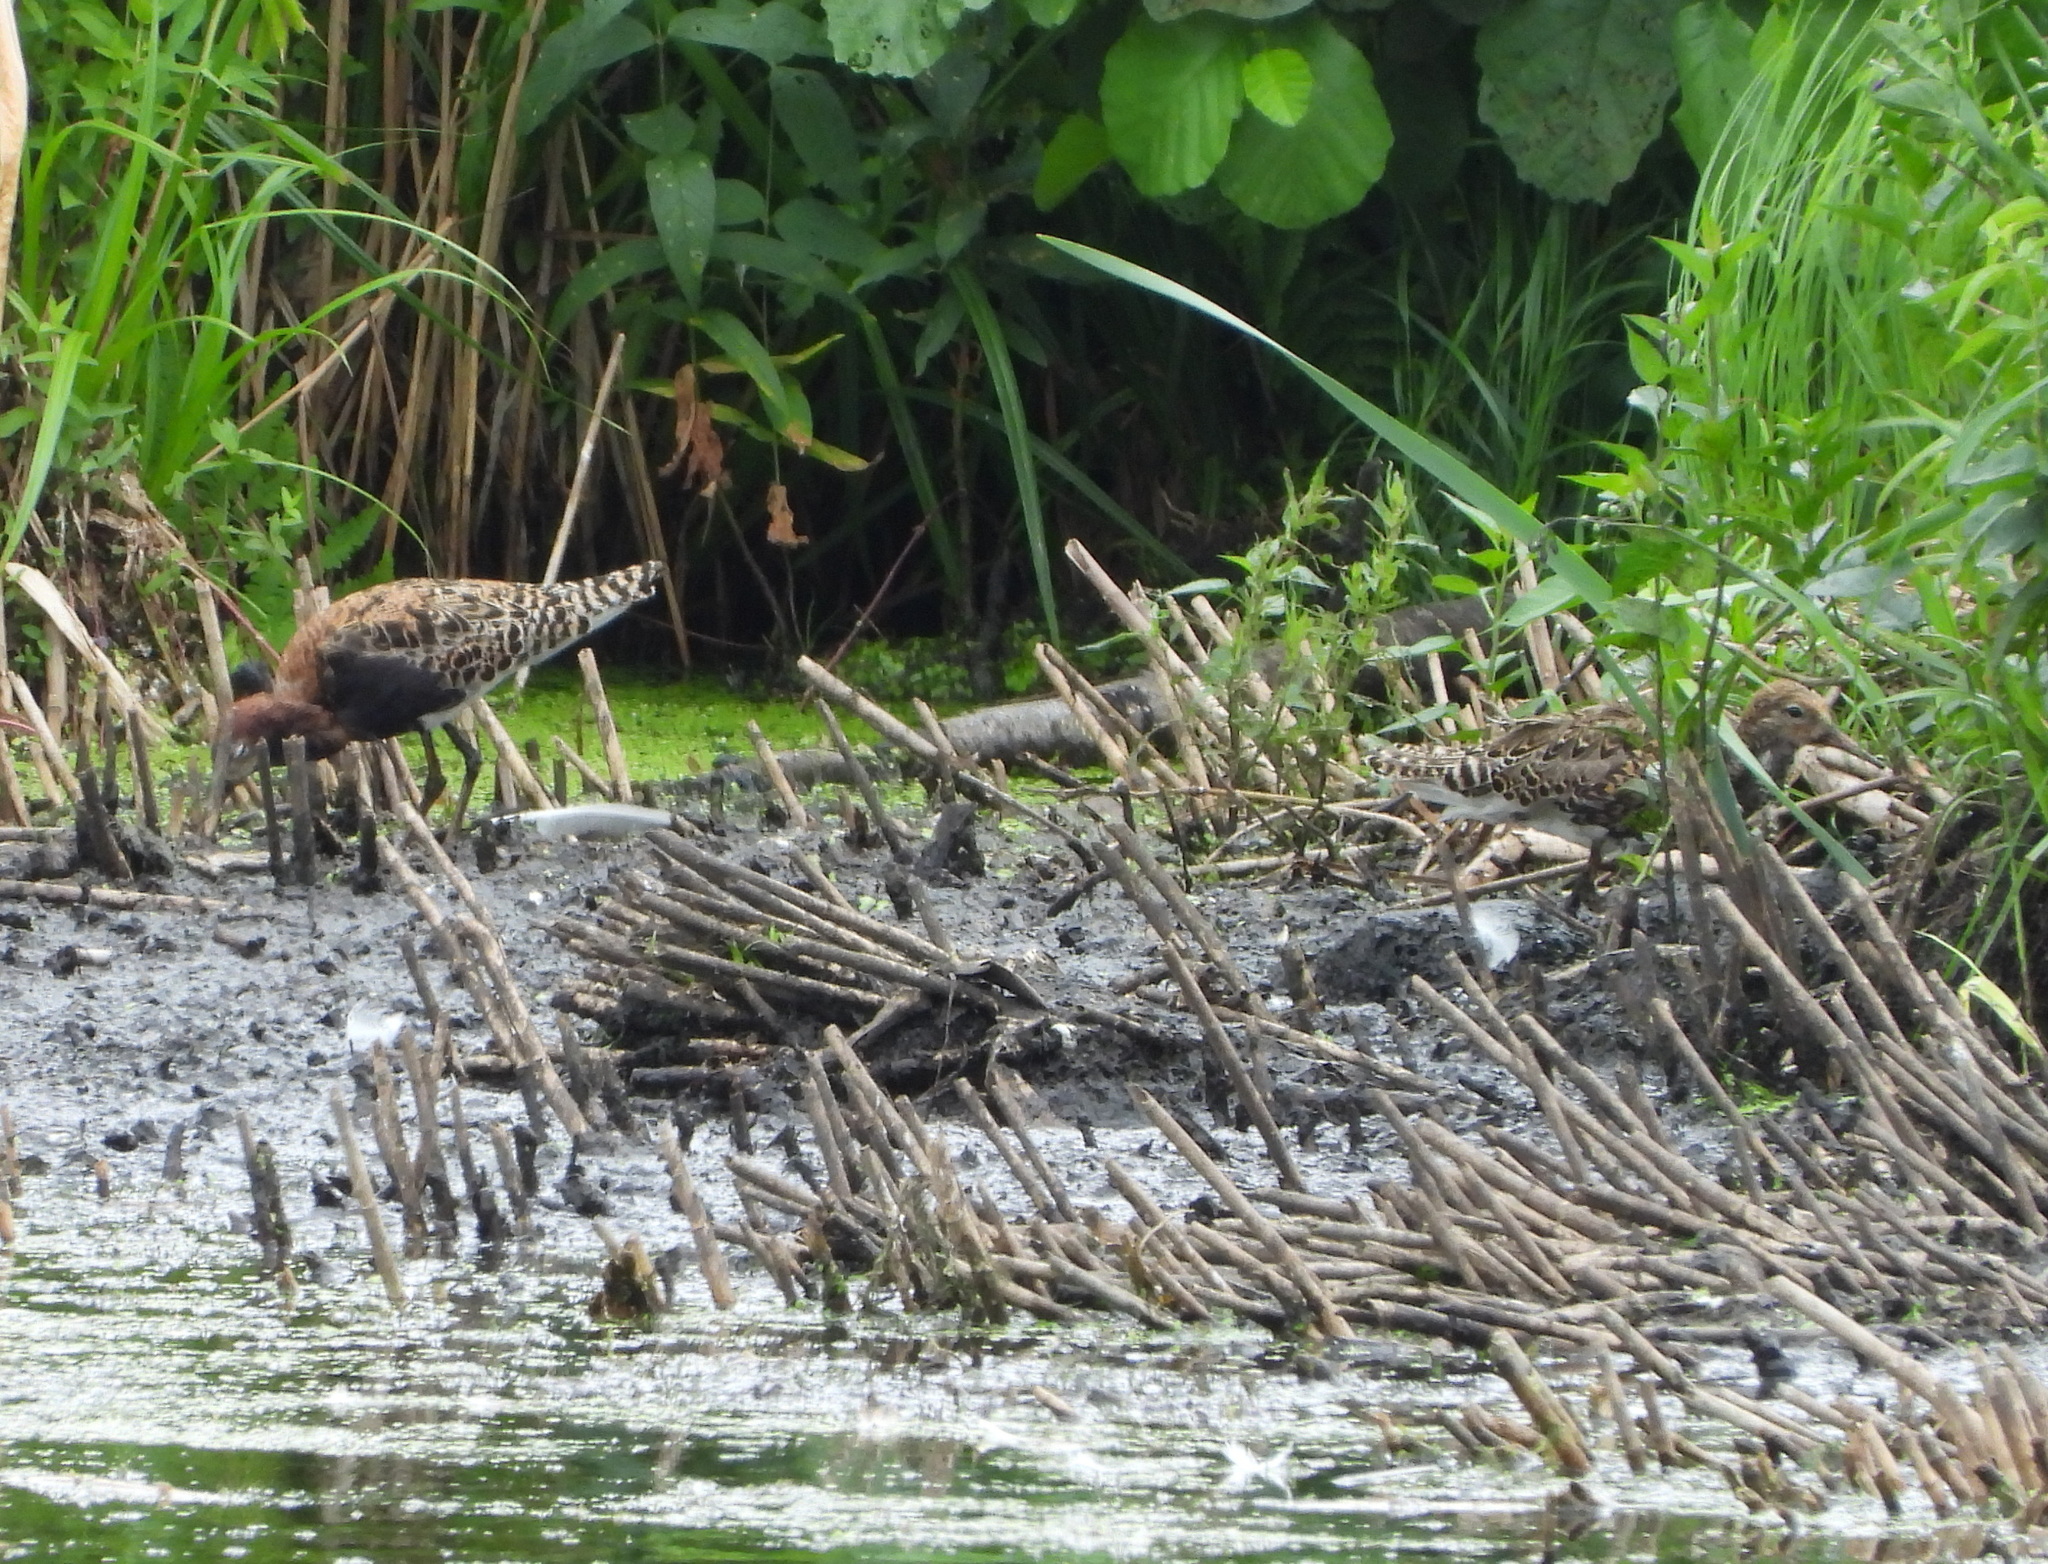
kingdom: Animalia
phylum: Chordata
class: Aves
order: Charadriiformes
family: Scolopacidae
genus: Calidris
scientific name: Calidris pugnax
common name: Ruff
